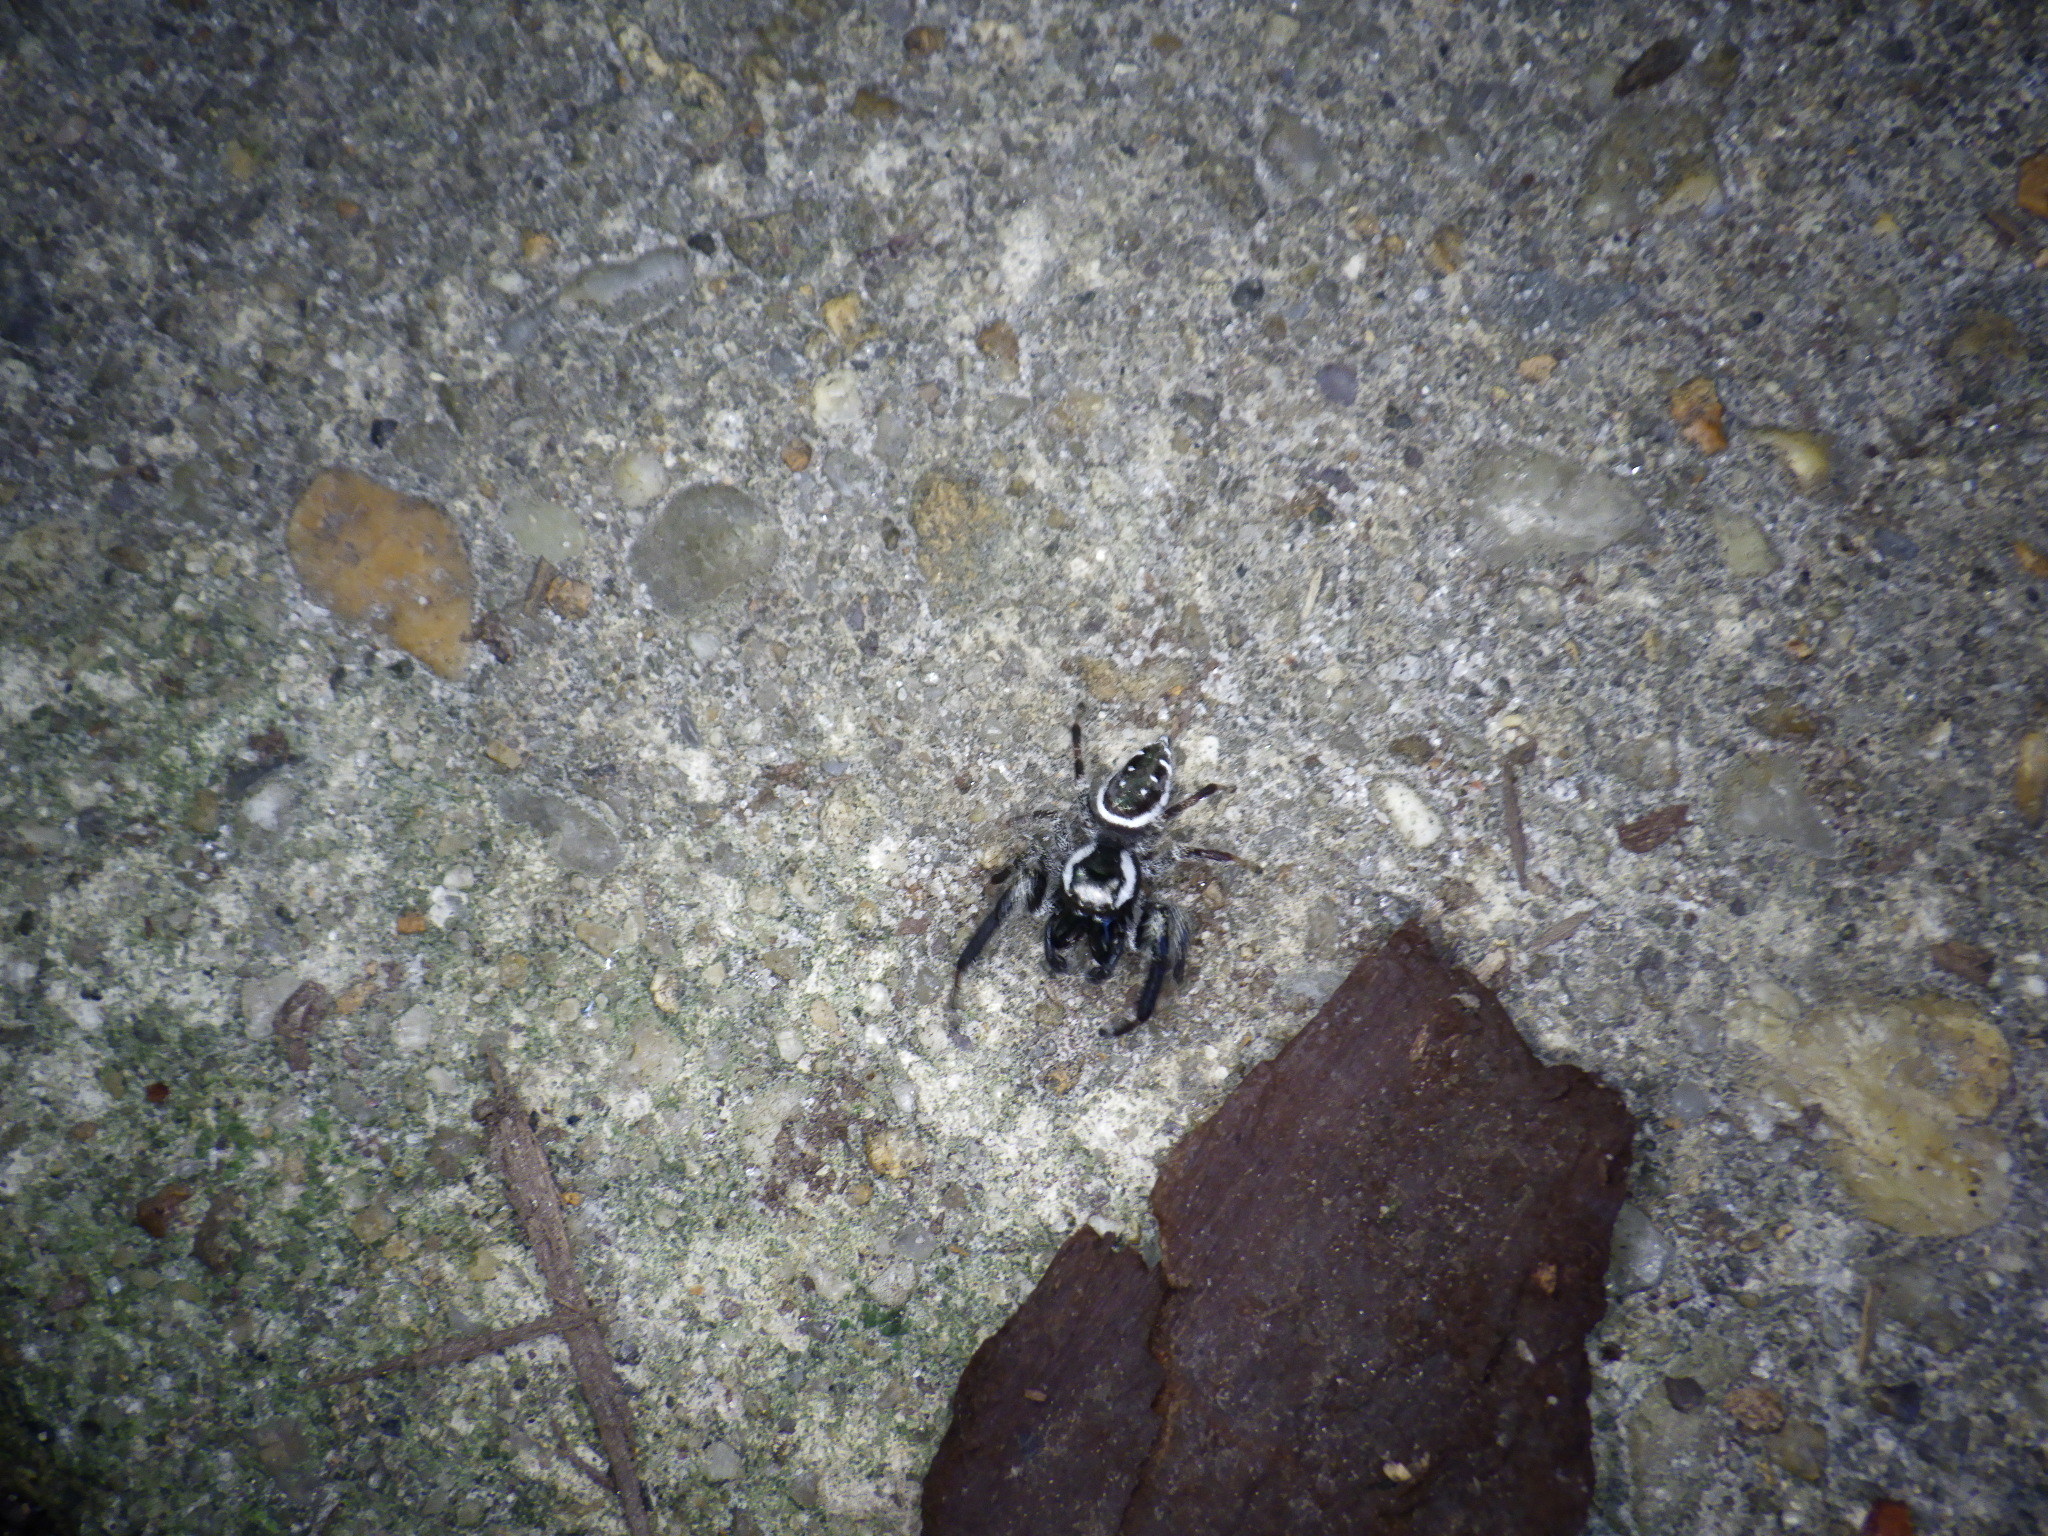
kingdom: Animalia
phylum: Arthropoda
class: Arachnida
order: Araneae
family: Salticidae
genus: Paraphidippus
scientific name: Paraphidippus aurantius
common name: Jumping spiders
